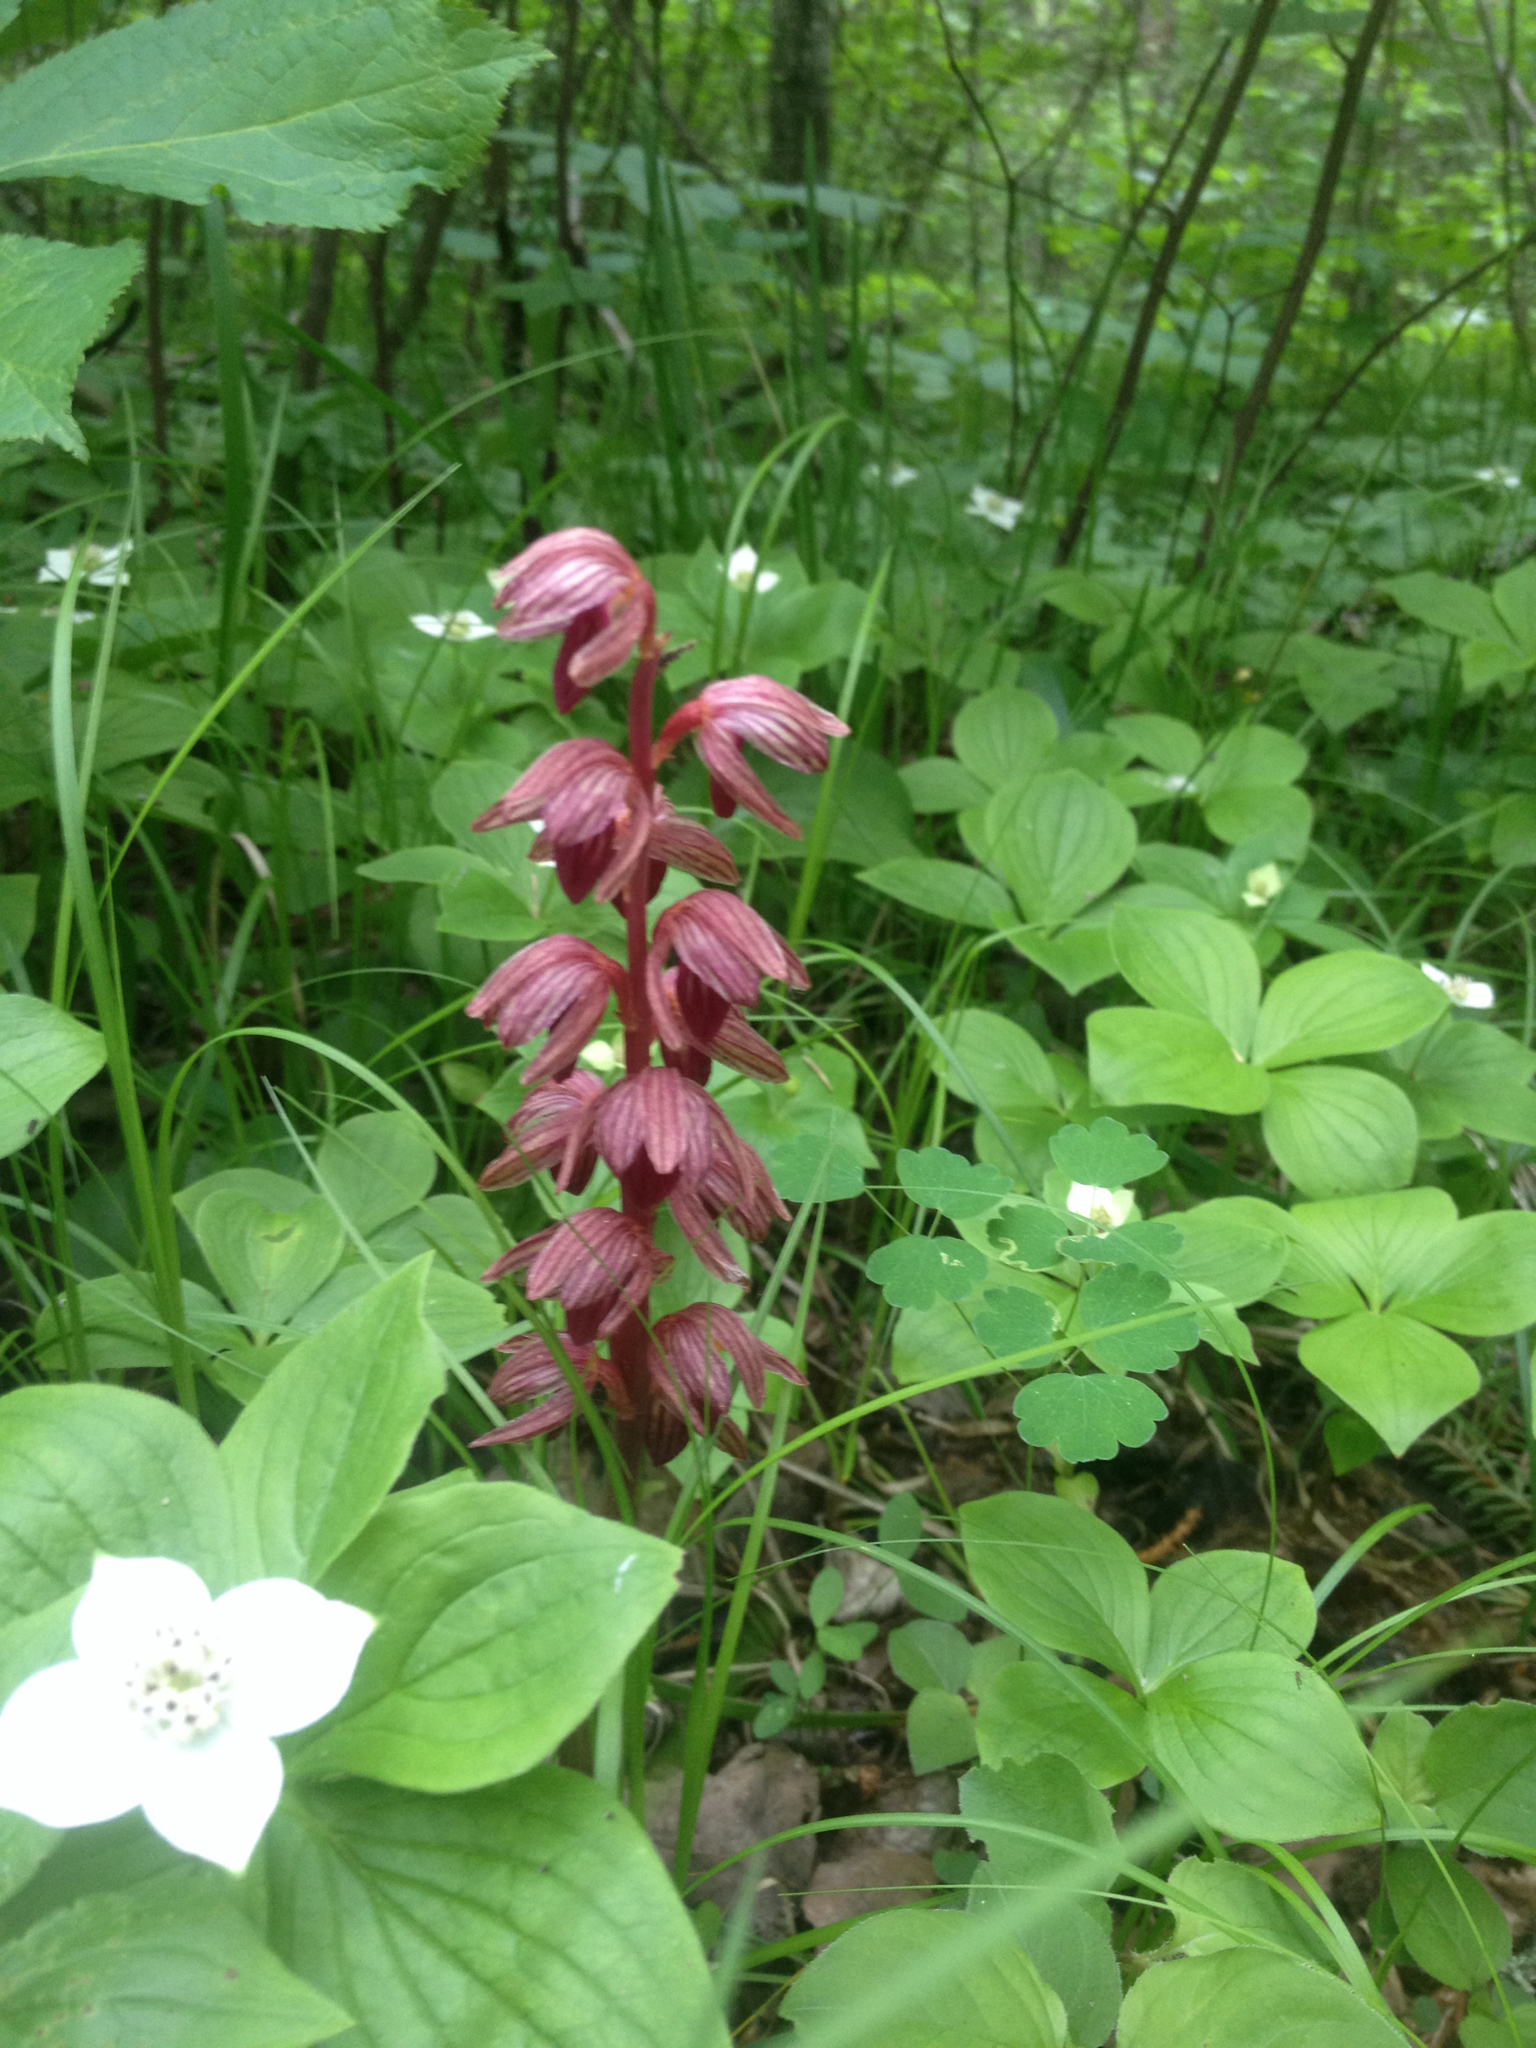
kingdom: Plantae
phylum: Tracheophyta
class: Liliopsida
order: Asparagales
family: Orchidaceae
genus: Corallorhiza
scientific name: Corallorhiza striata
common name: Hooded coralroot
